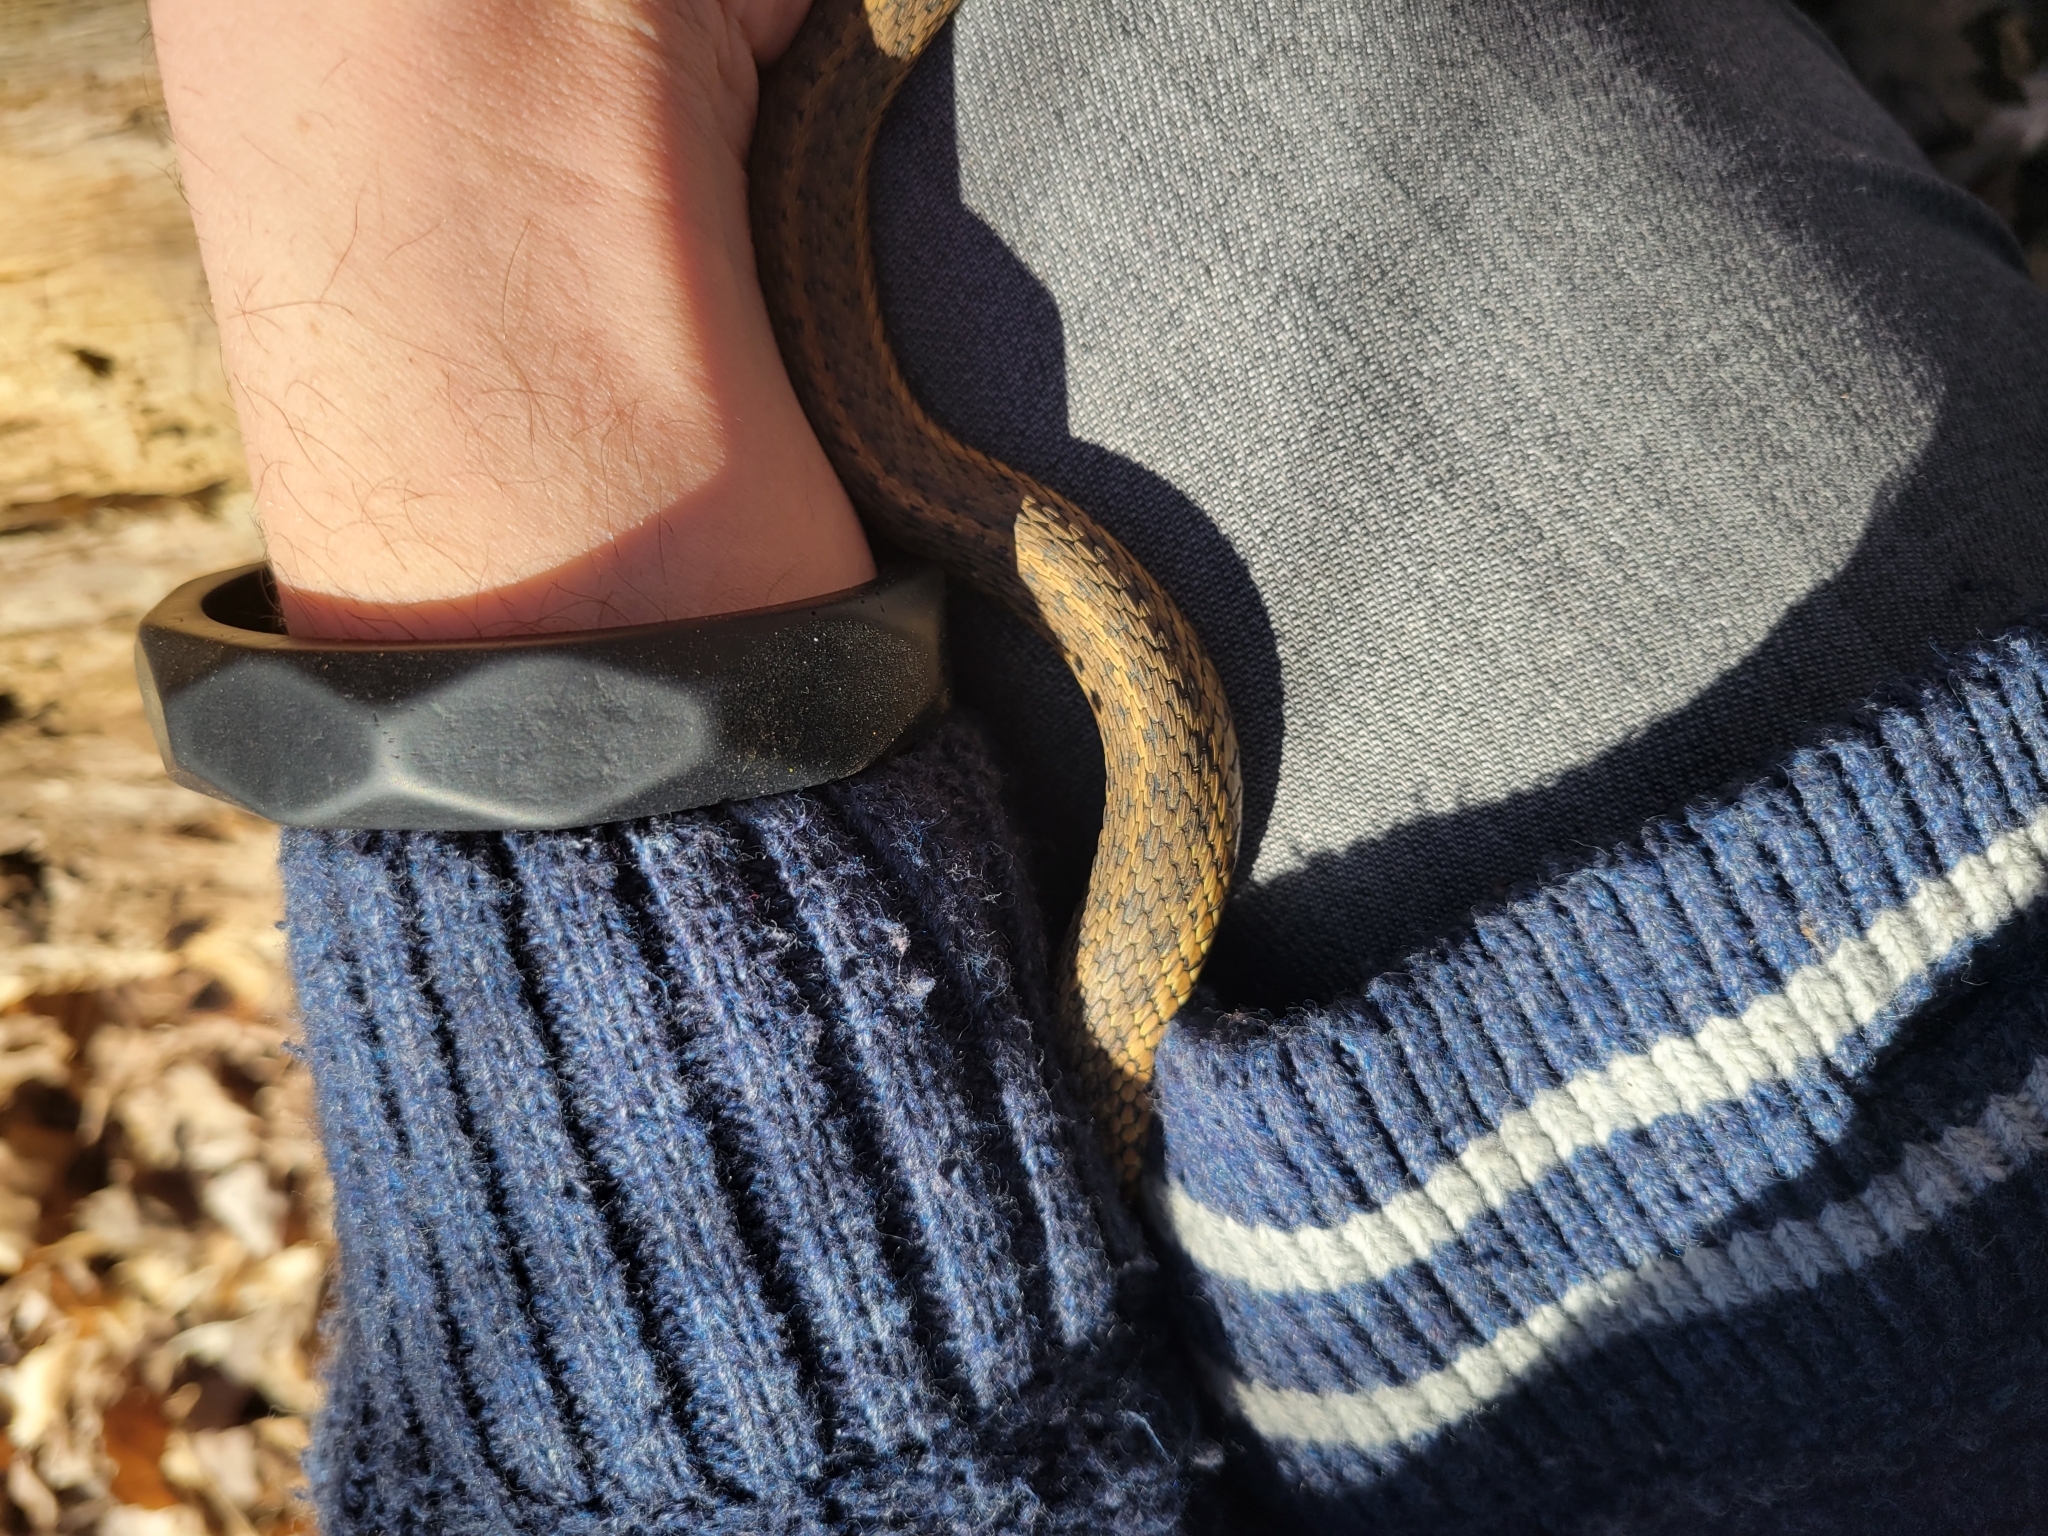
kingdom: Animalia
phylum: Chordata
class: Squamata
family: Colubridae
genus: Thamnophis
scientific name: Thamnophis sirtalis
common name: Common garter snake
